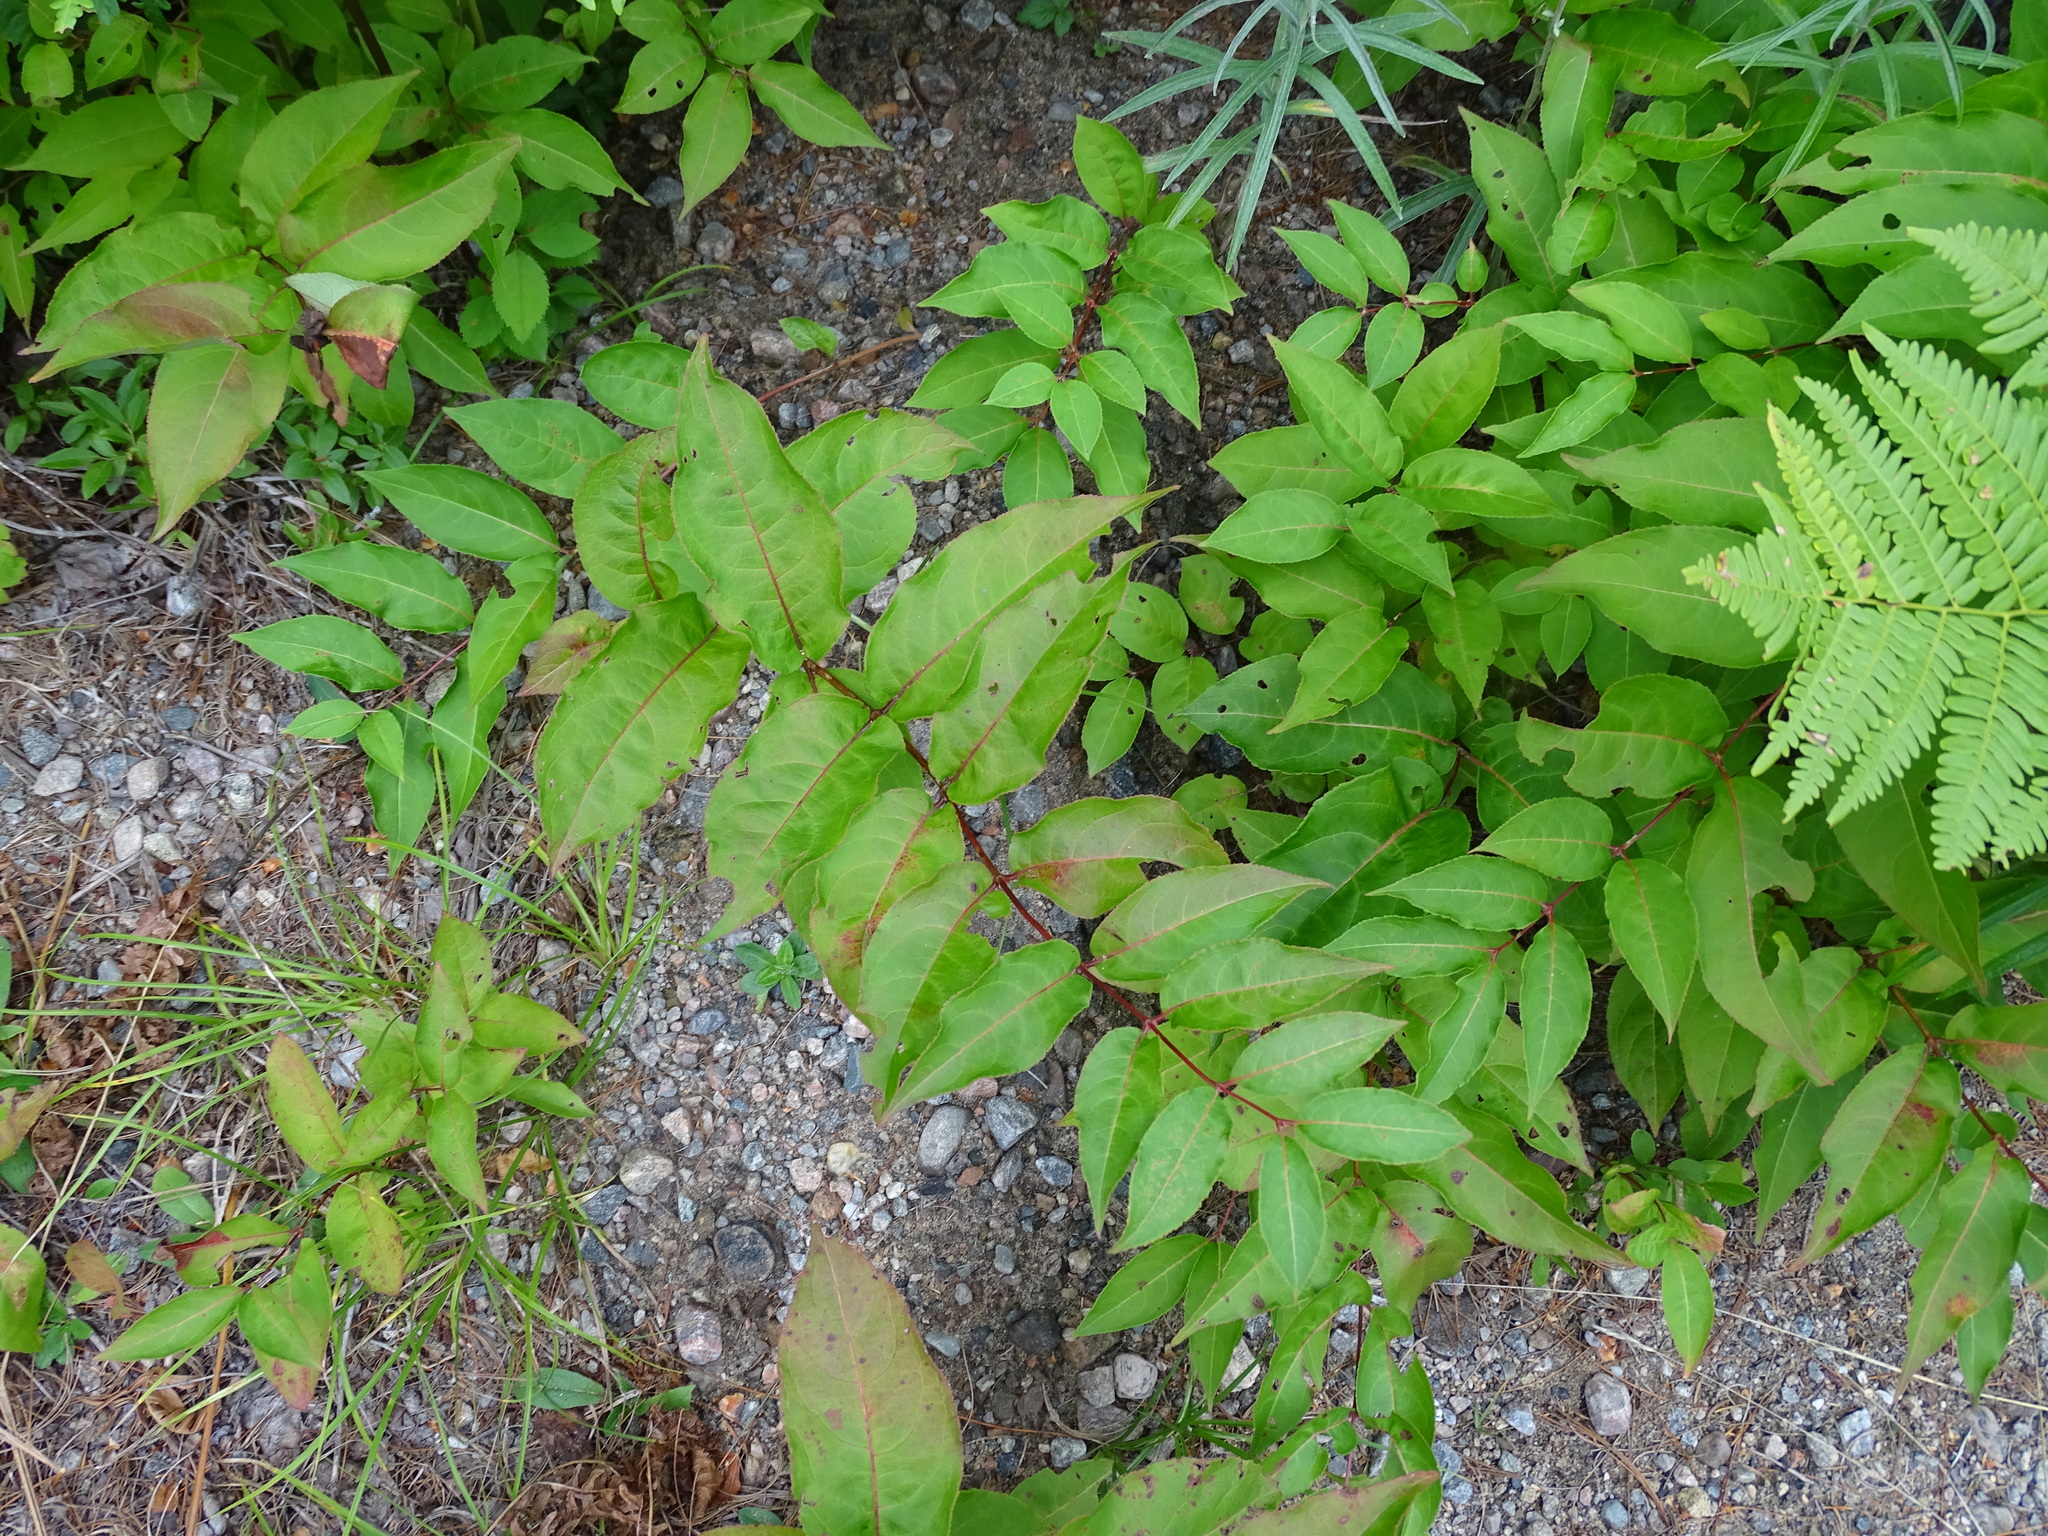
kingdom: Plantae
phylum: Tracheophyta
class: Magnoliopsida
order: Dipsacales
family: Caprifoliaceae
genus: Diervilla
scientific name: Diervilla lonicera
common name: Bush-honeysuckle
